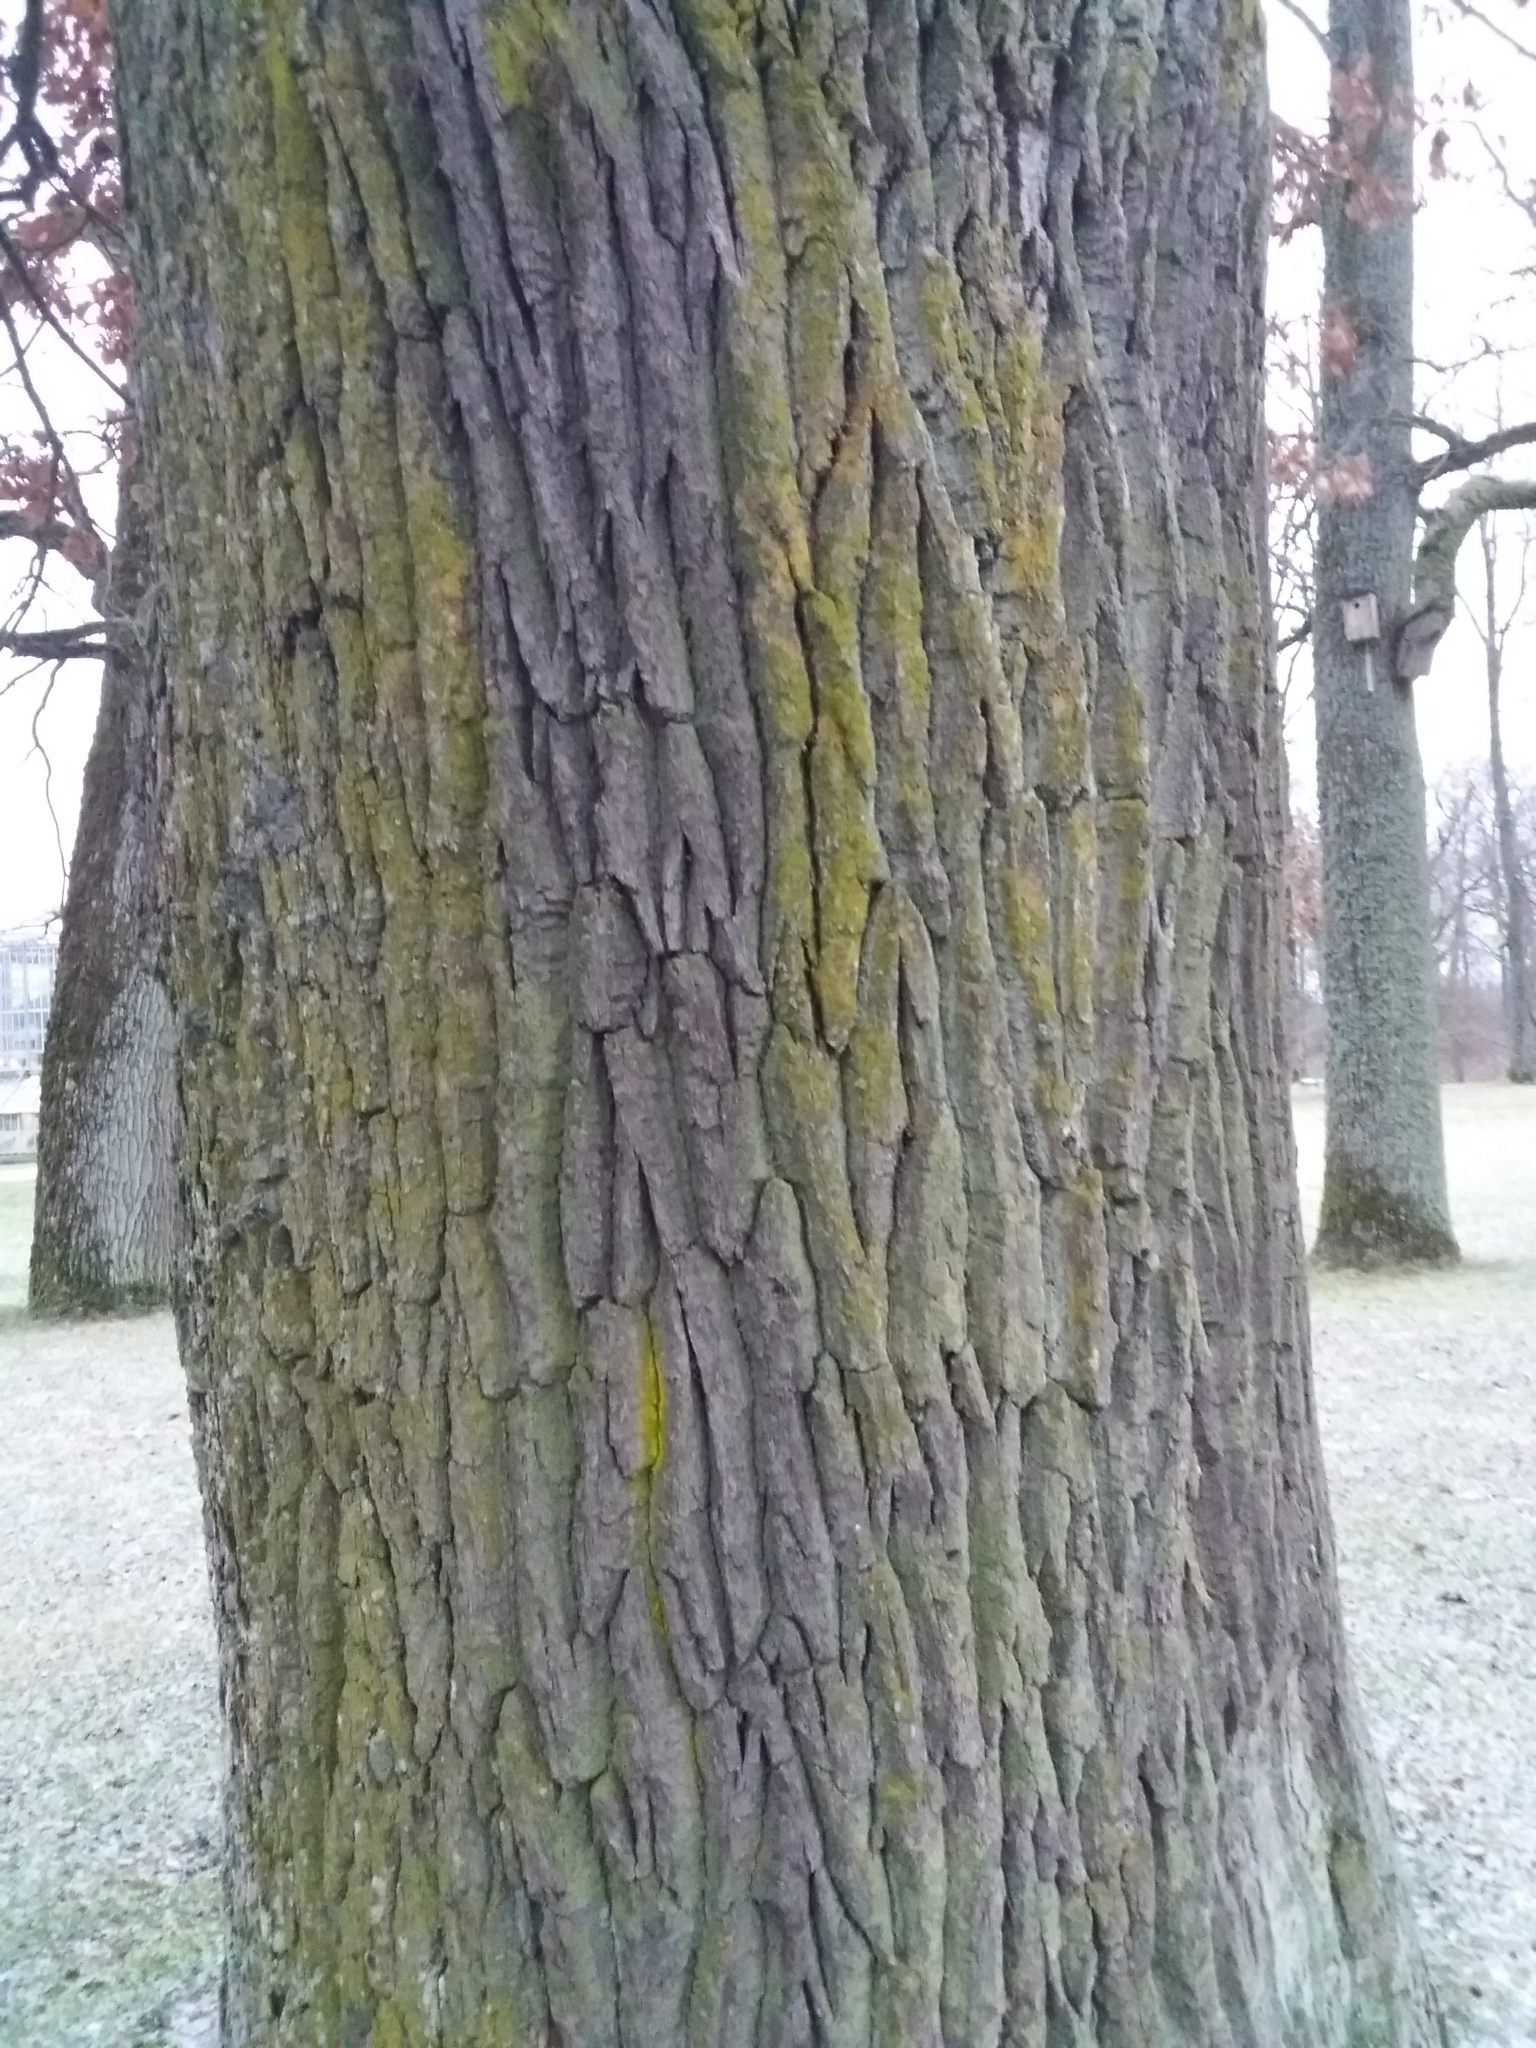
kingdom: Plantae
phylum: Tracheophyta
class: Magnoliopsida
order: Fagales
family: Fagaceae
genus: Quercus
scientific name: Quercus robur
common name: Pedunculate oak
